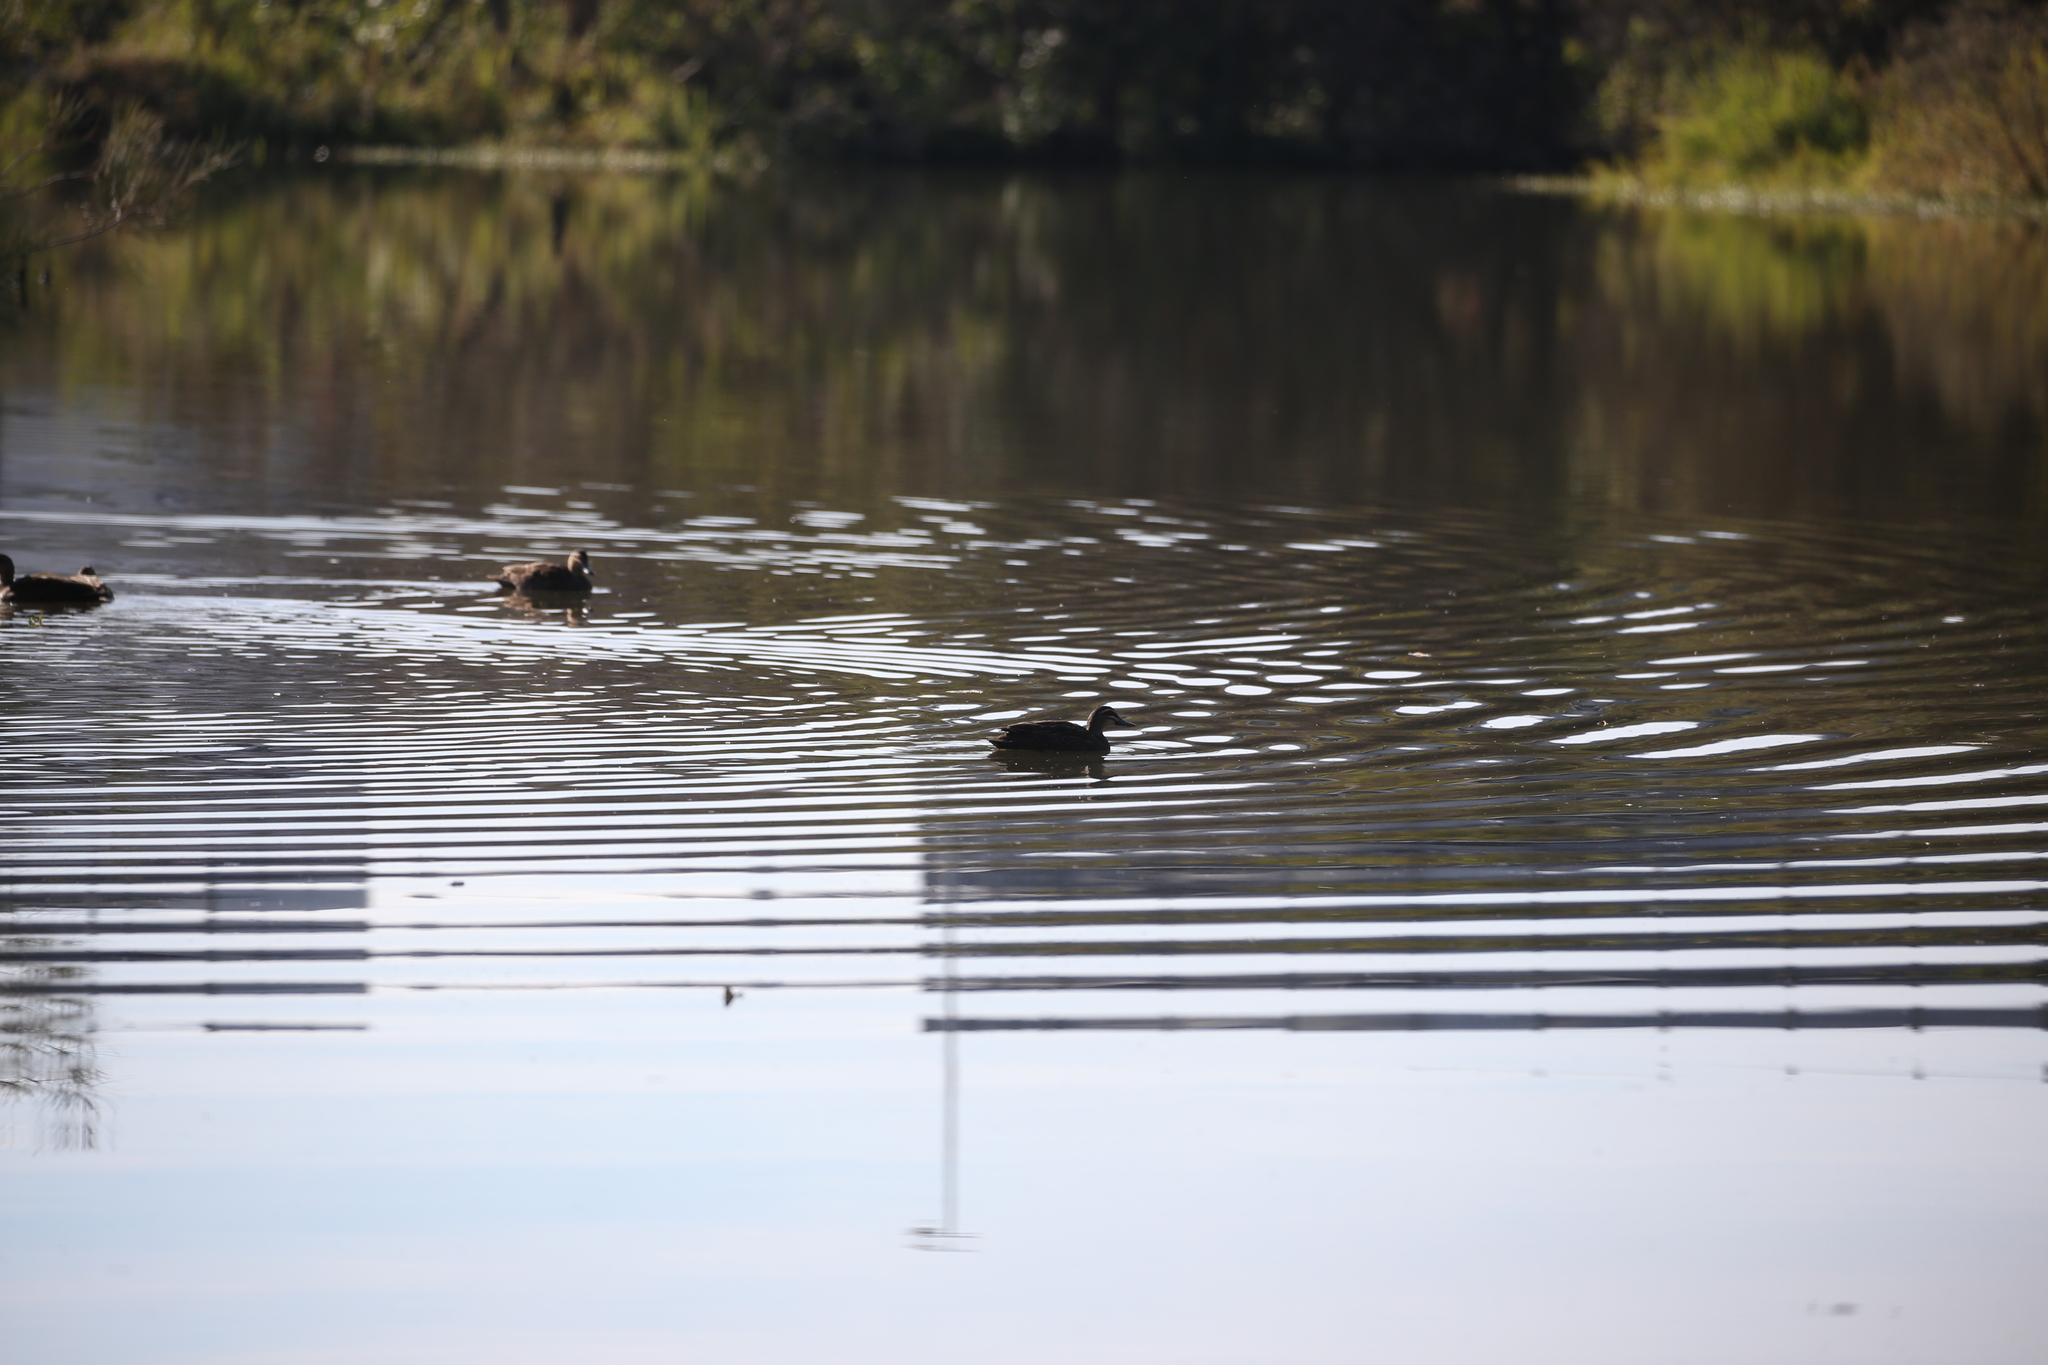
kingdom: Animalia
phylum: Chordata
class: Aves
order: Anseriformes
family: Anatidae
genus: Anas
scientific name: Anas superciliosa
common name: Pacific black duck
